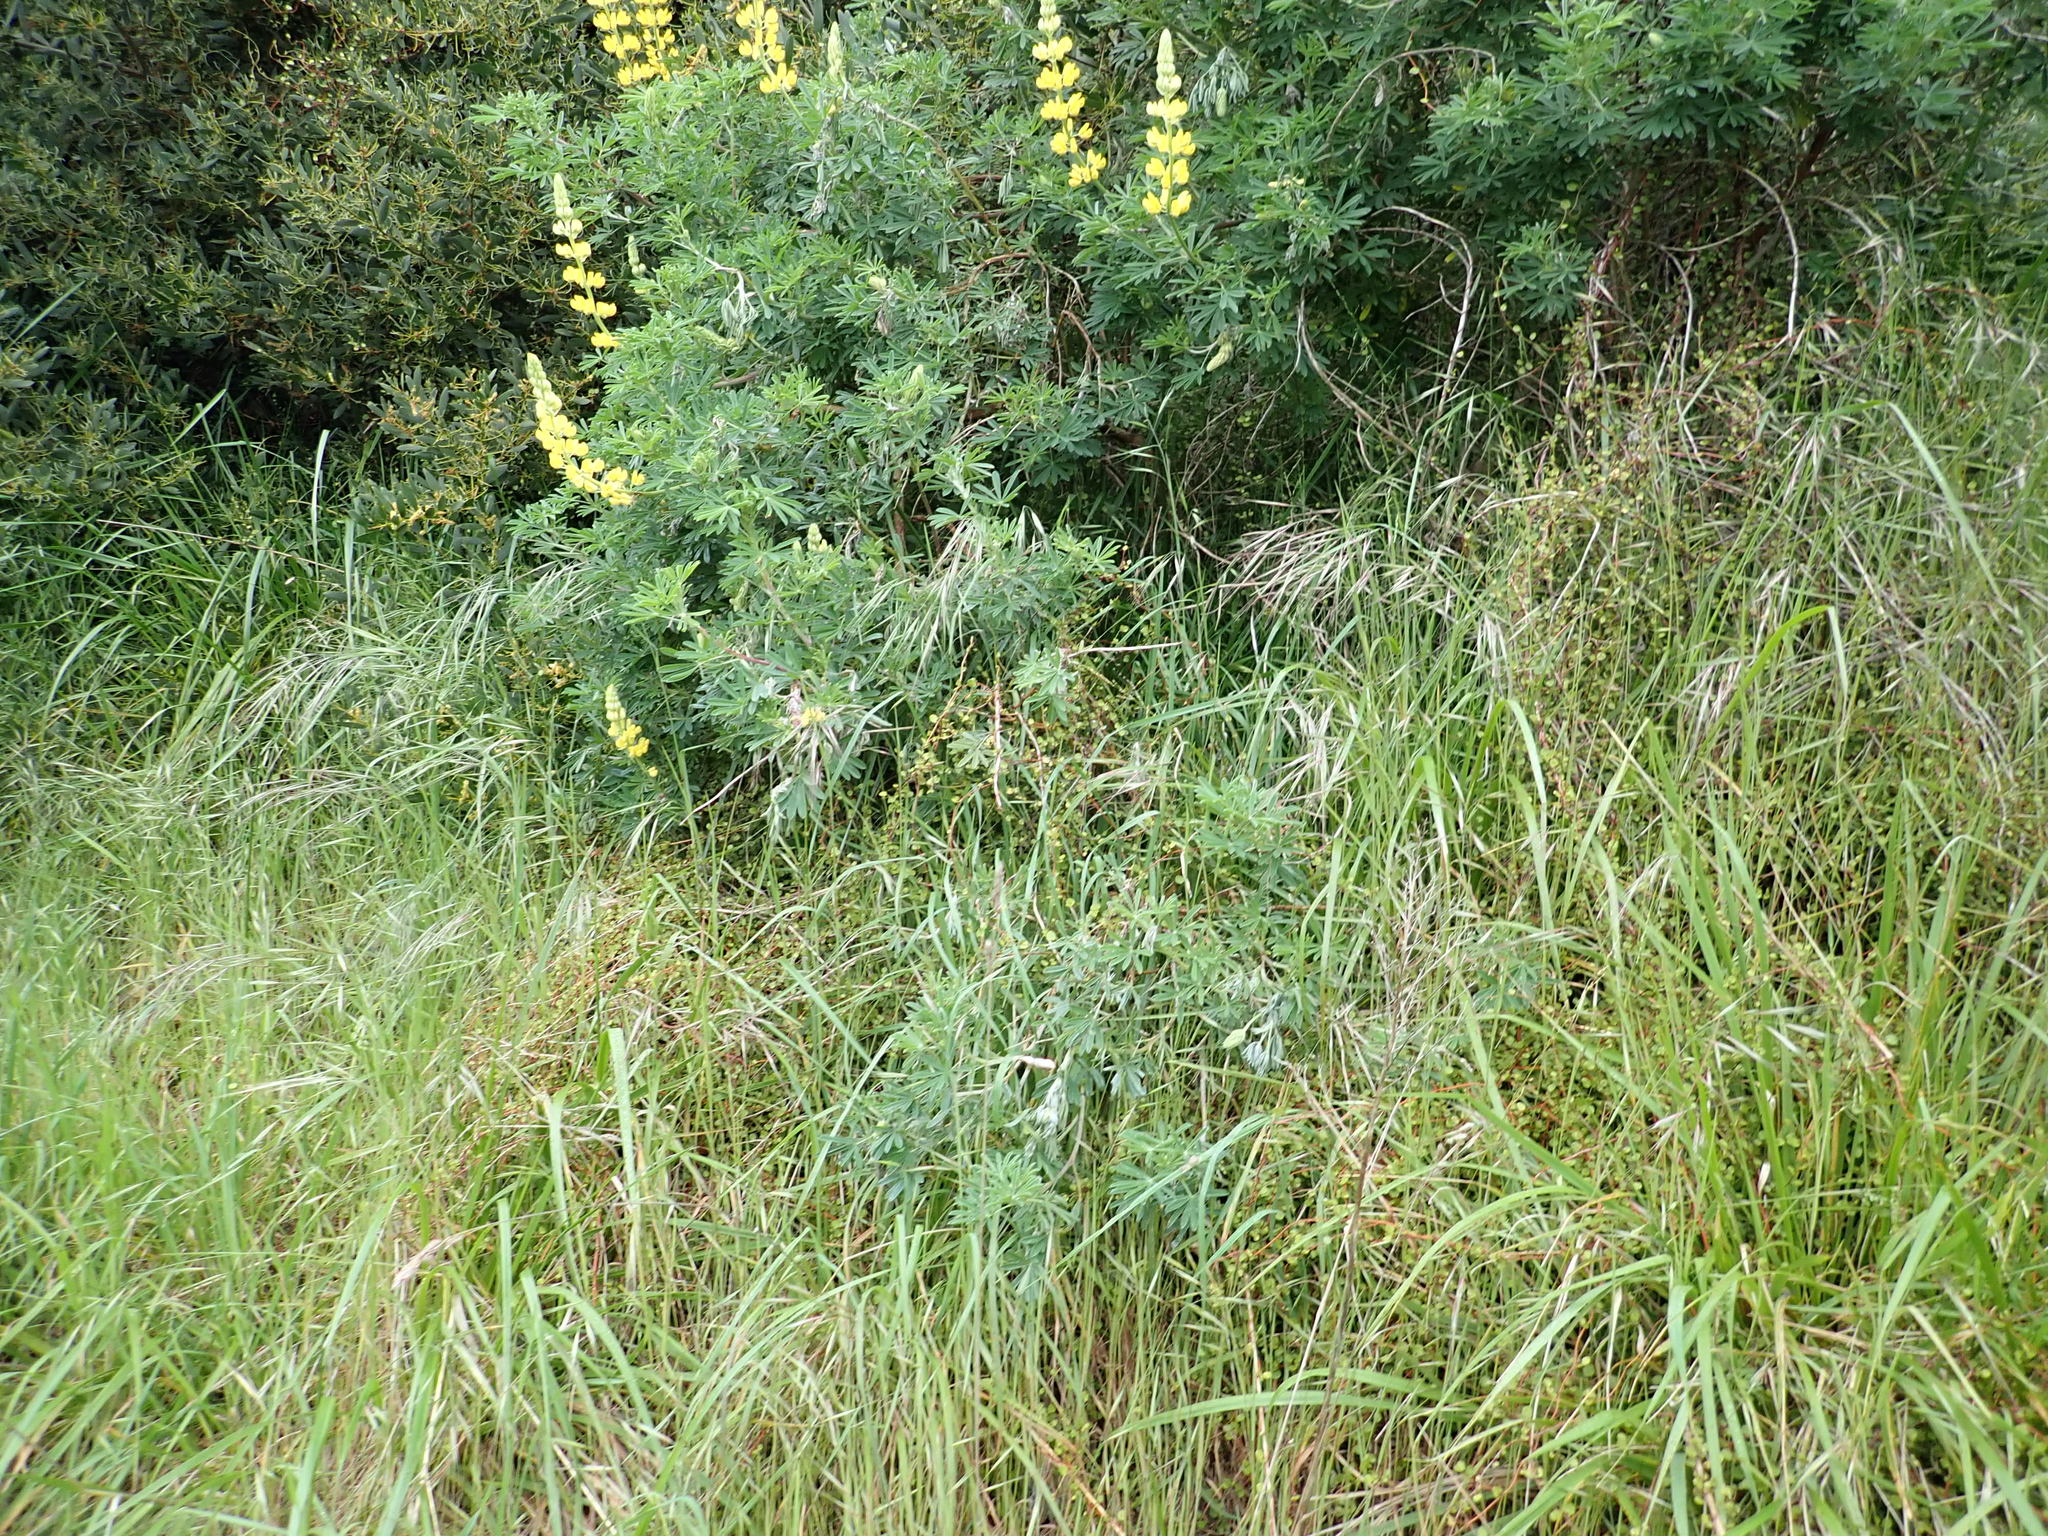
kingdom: Plantae
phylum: Tracheophyta
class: Magnoliopsida
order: Caryophyllales
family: Polygonaceae
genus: Muehlenbeckia
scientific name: Muehlenbeckia complexa
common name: Wireplant
